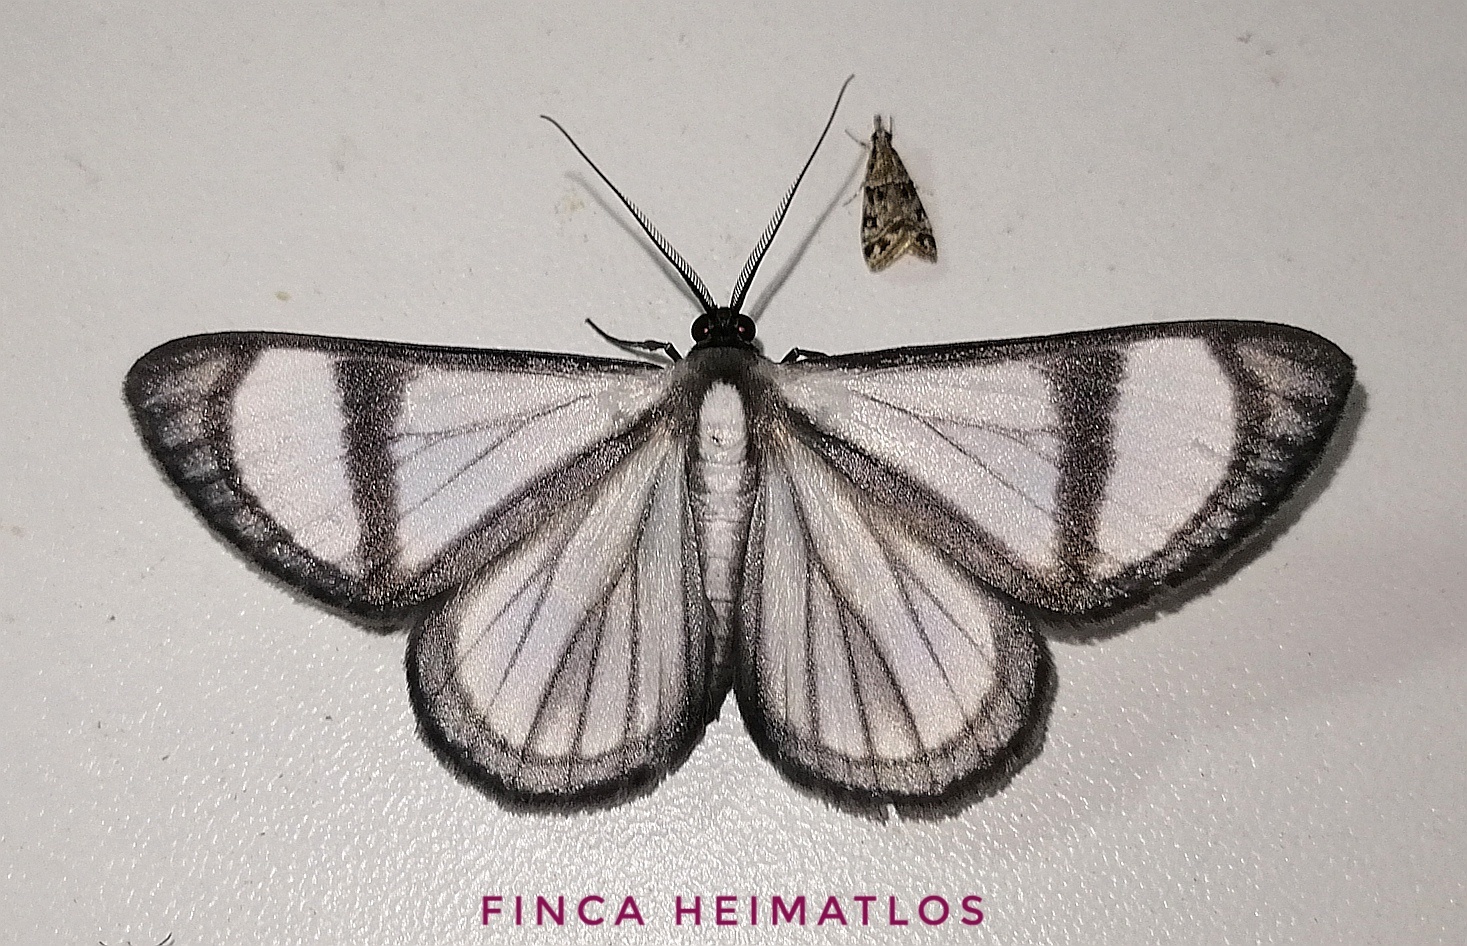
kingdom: Animalia
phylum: Arthropoda
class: Insecta
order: Lepidoptera
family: Geometridae
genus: Genussa
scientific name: Genussa famulata
